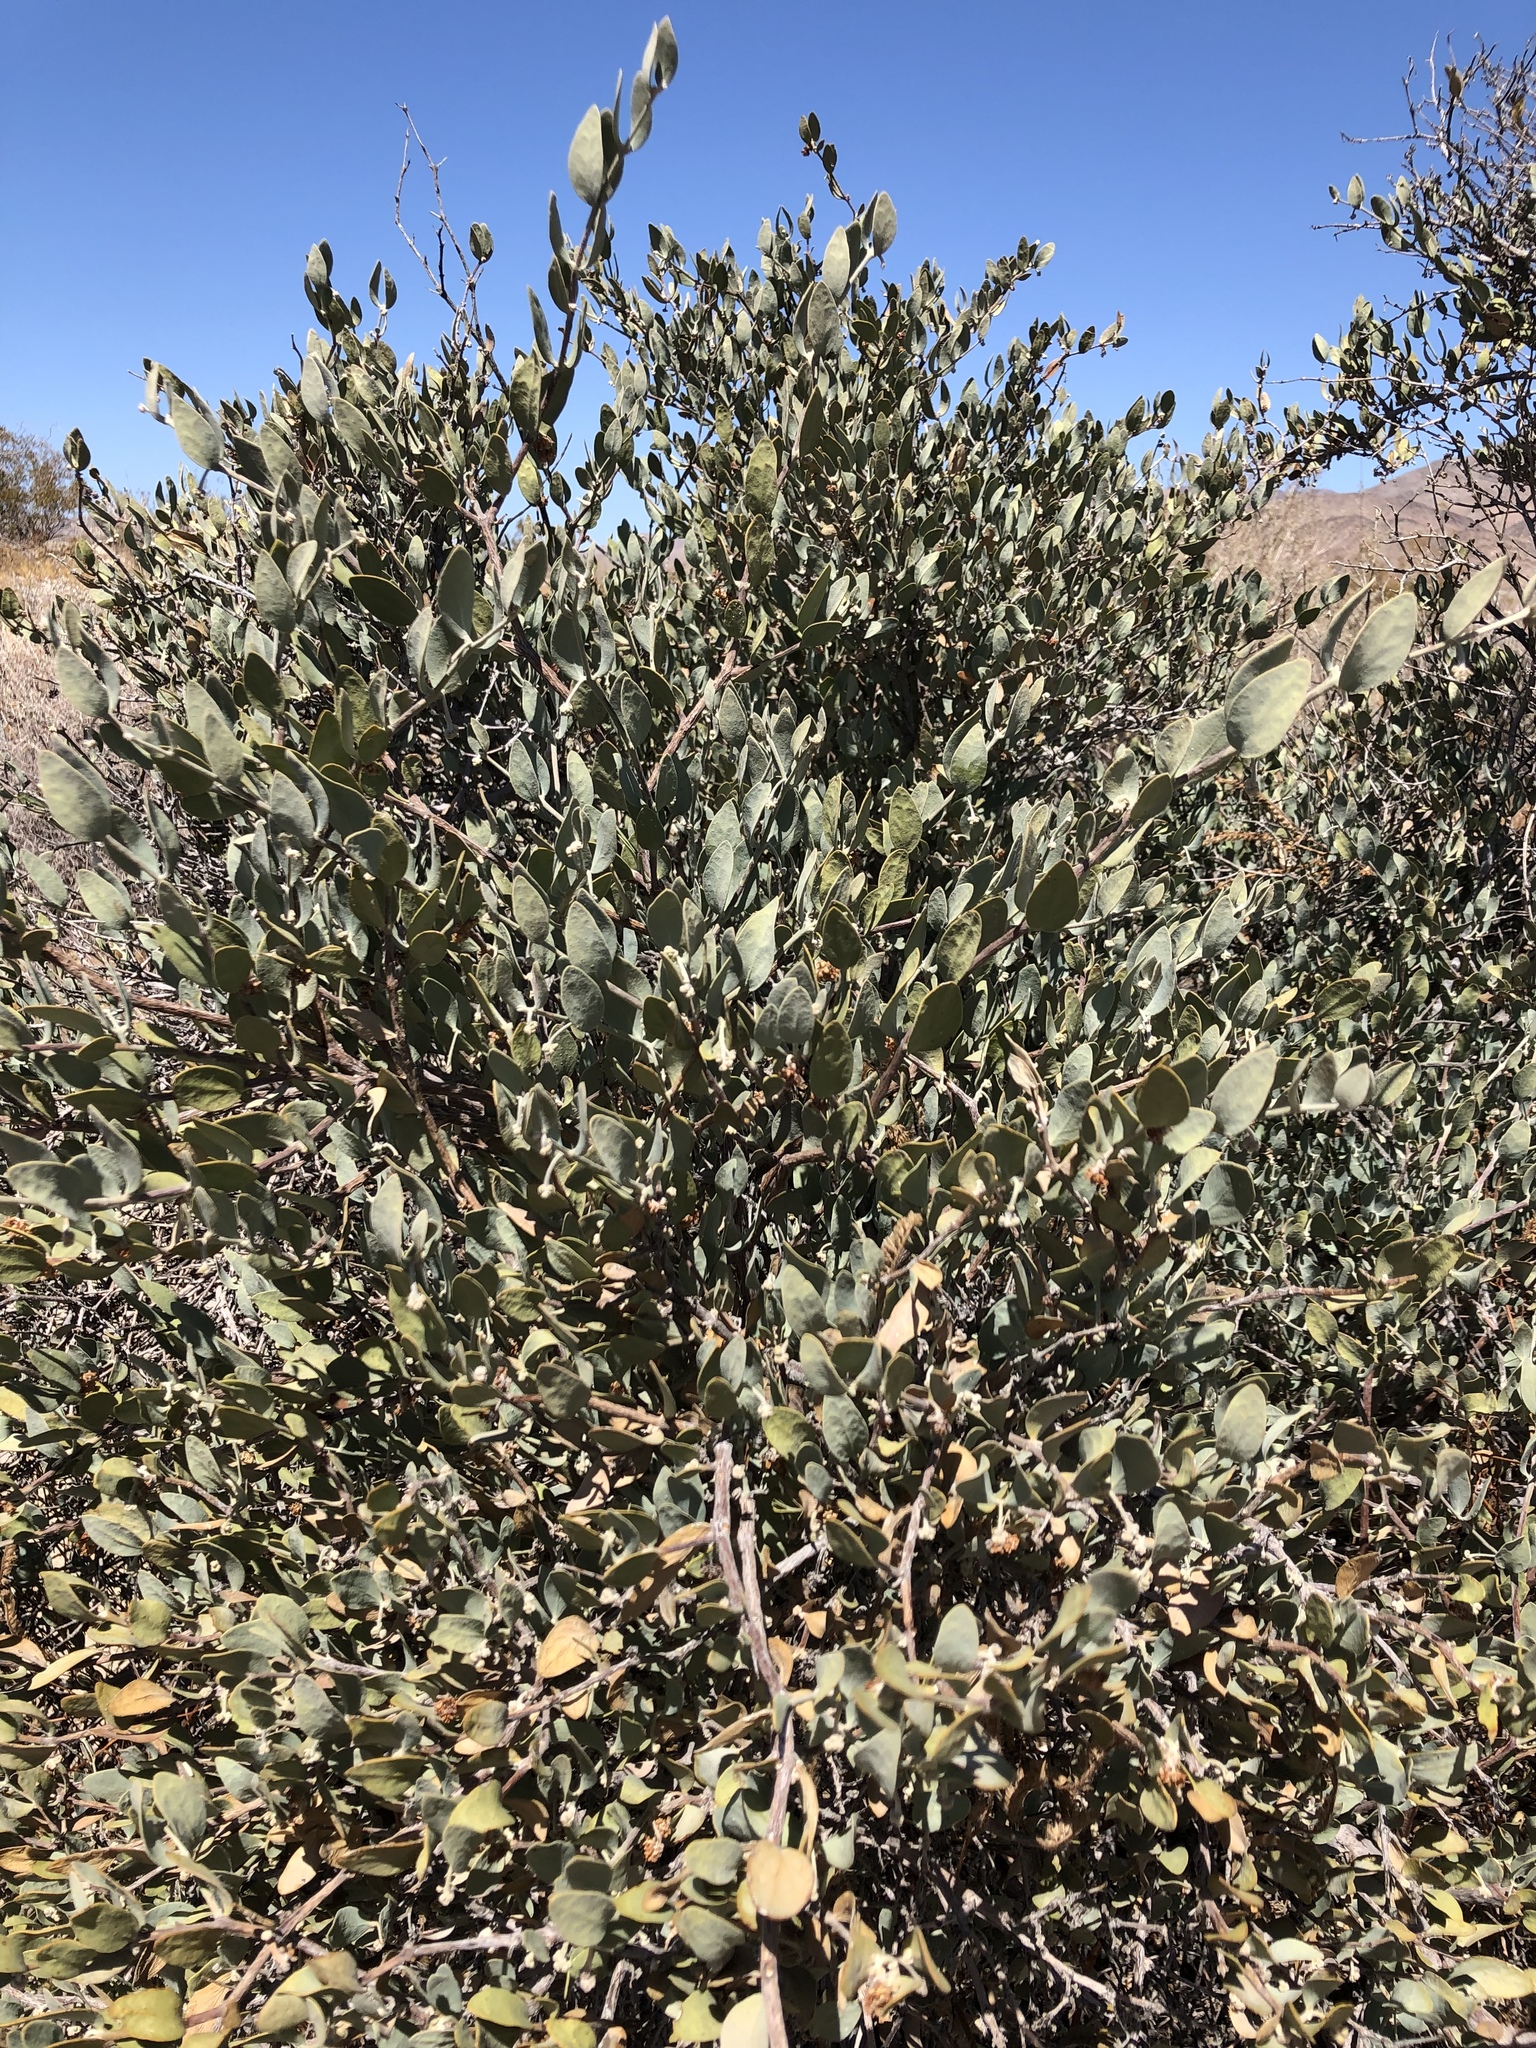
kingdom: Plantae
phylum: Tracheophyta
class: Magnoliopsida
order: Caryophyllales
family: Simmondsiaceae
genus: Simmondsia
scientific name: Simmondsia chinensis
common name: Jojoba
